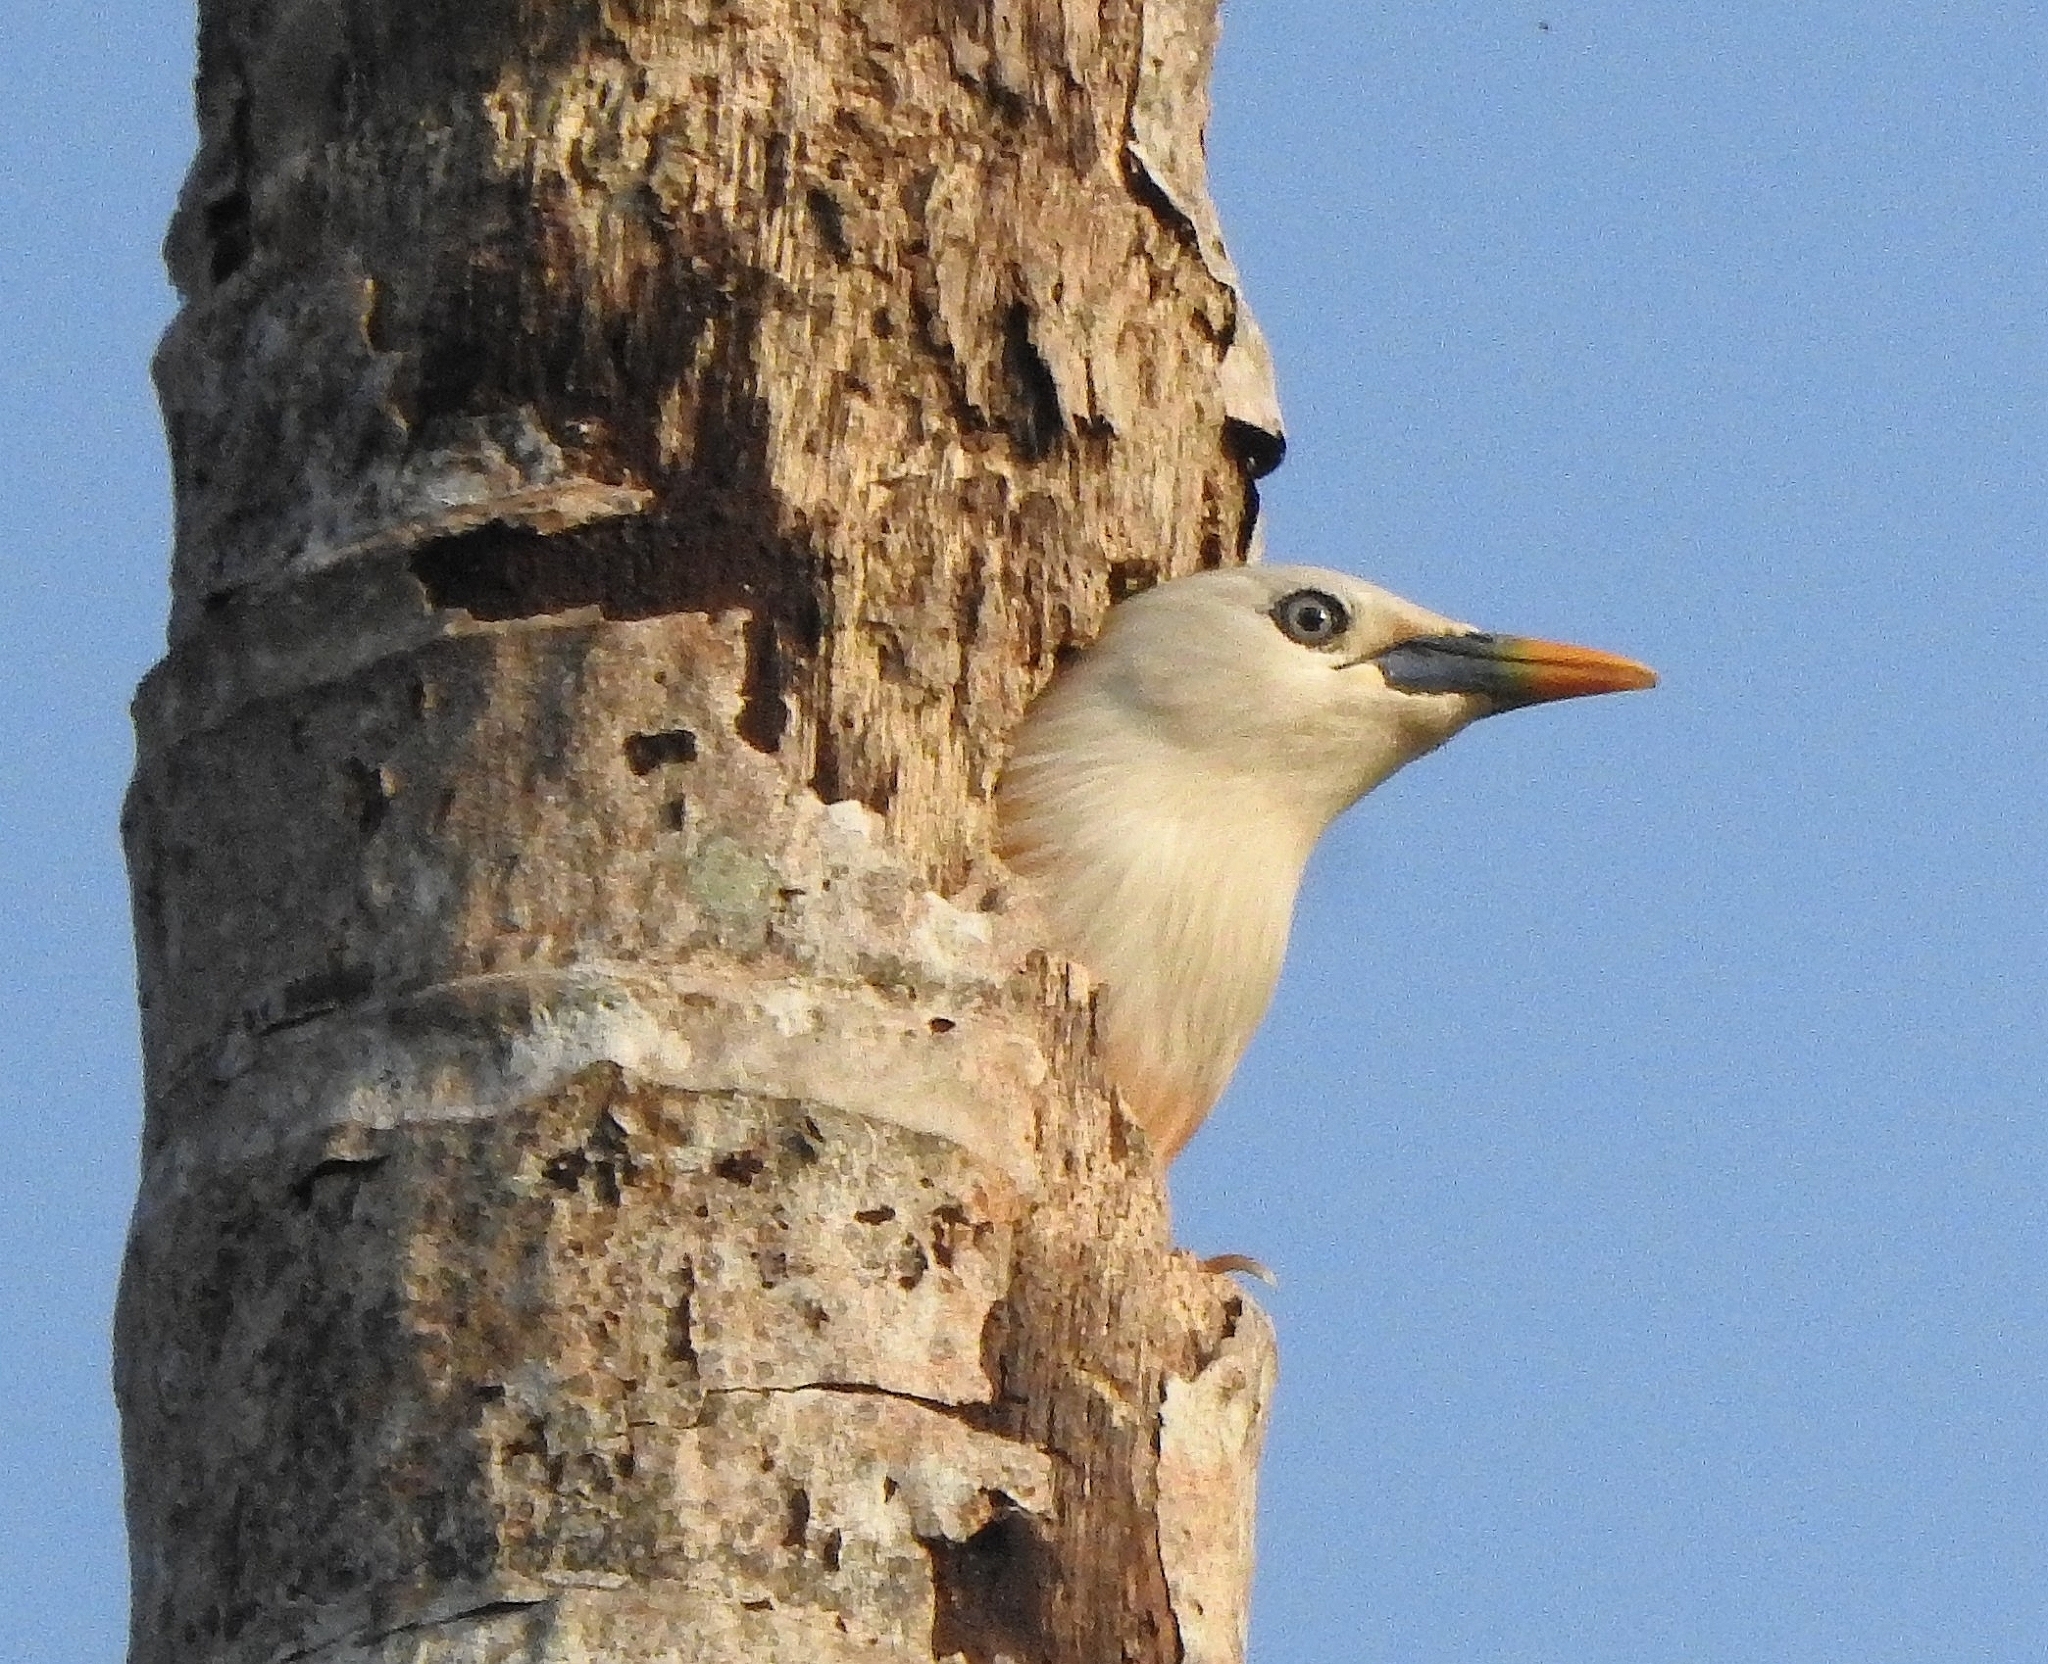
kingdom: Animalia
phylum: Chordata
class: Aves
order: Passeriformes
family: Sturnidae
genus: Sturnia
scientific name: Sturnia blythii
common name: Malabar starling
